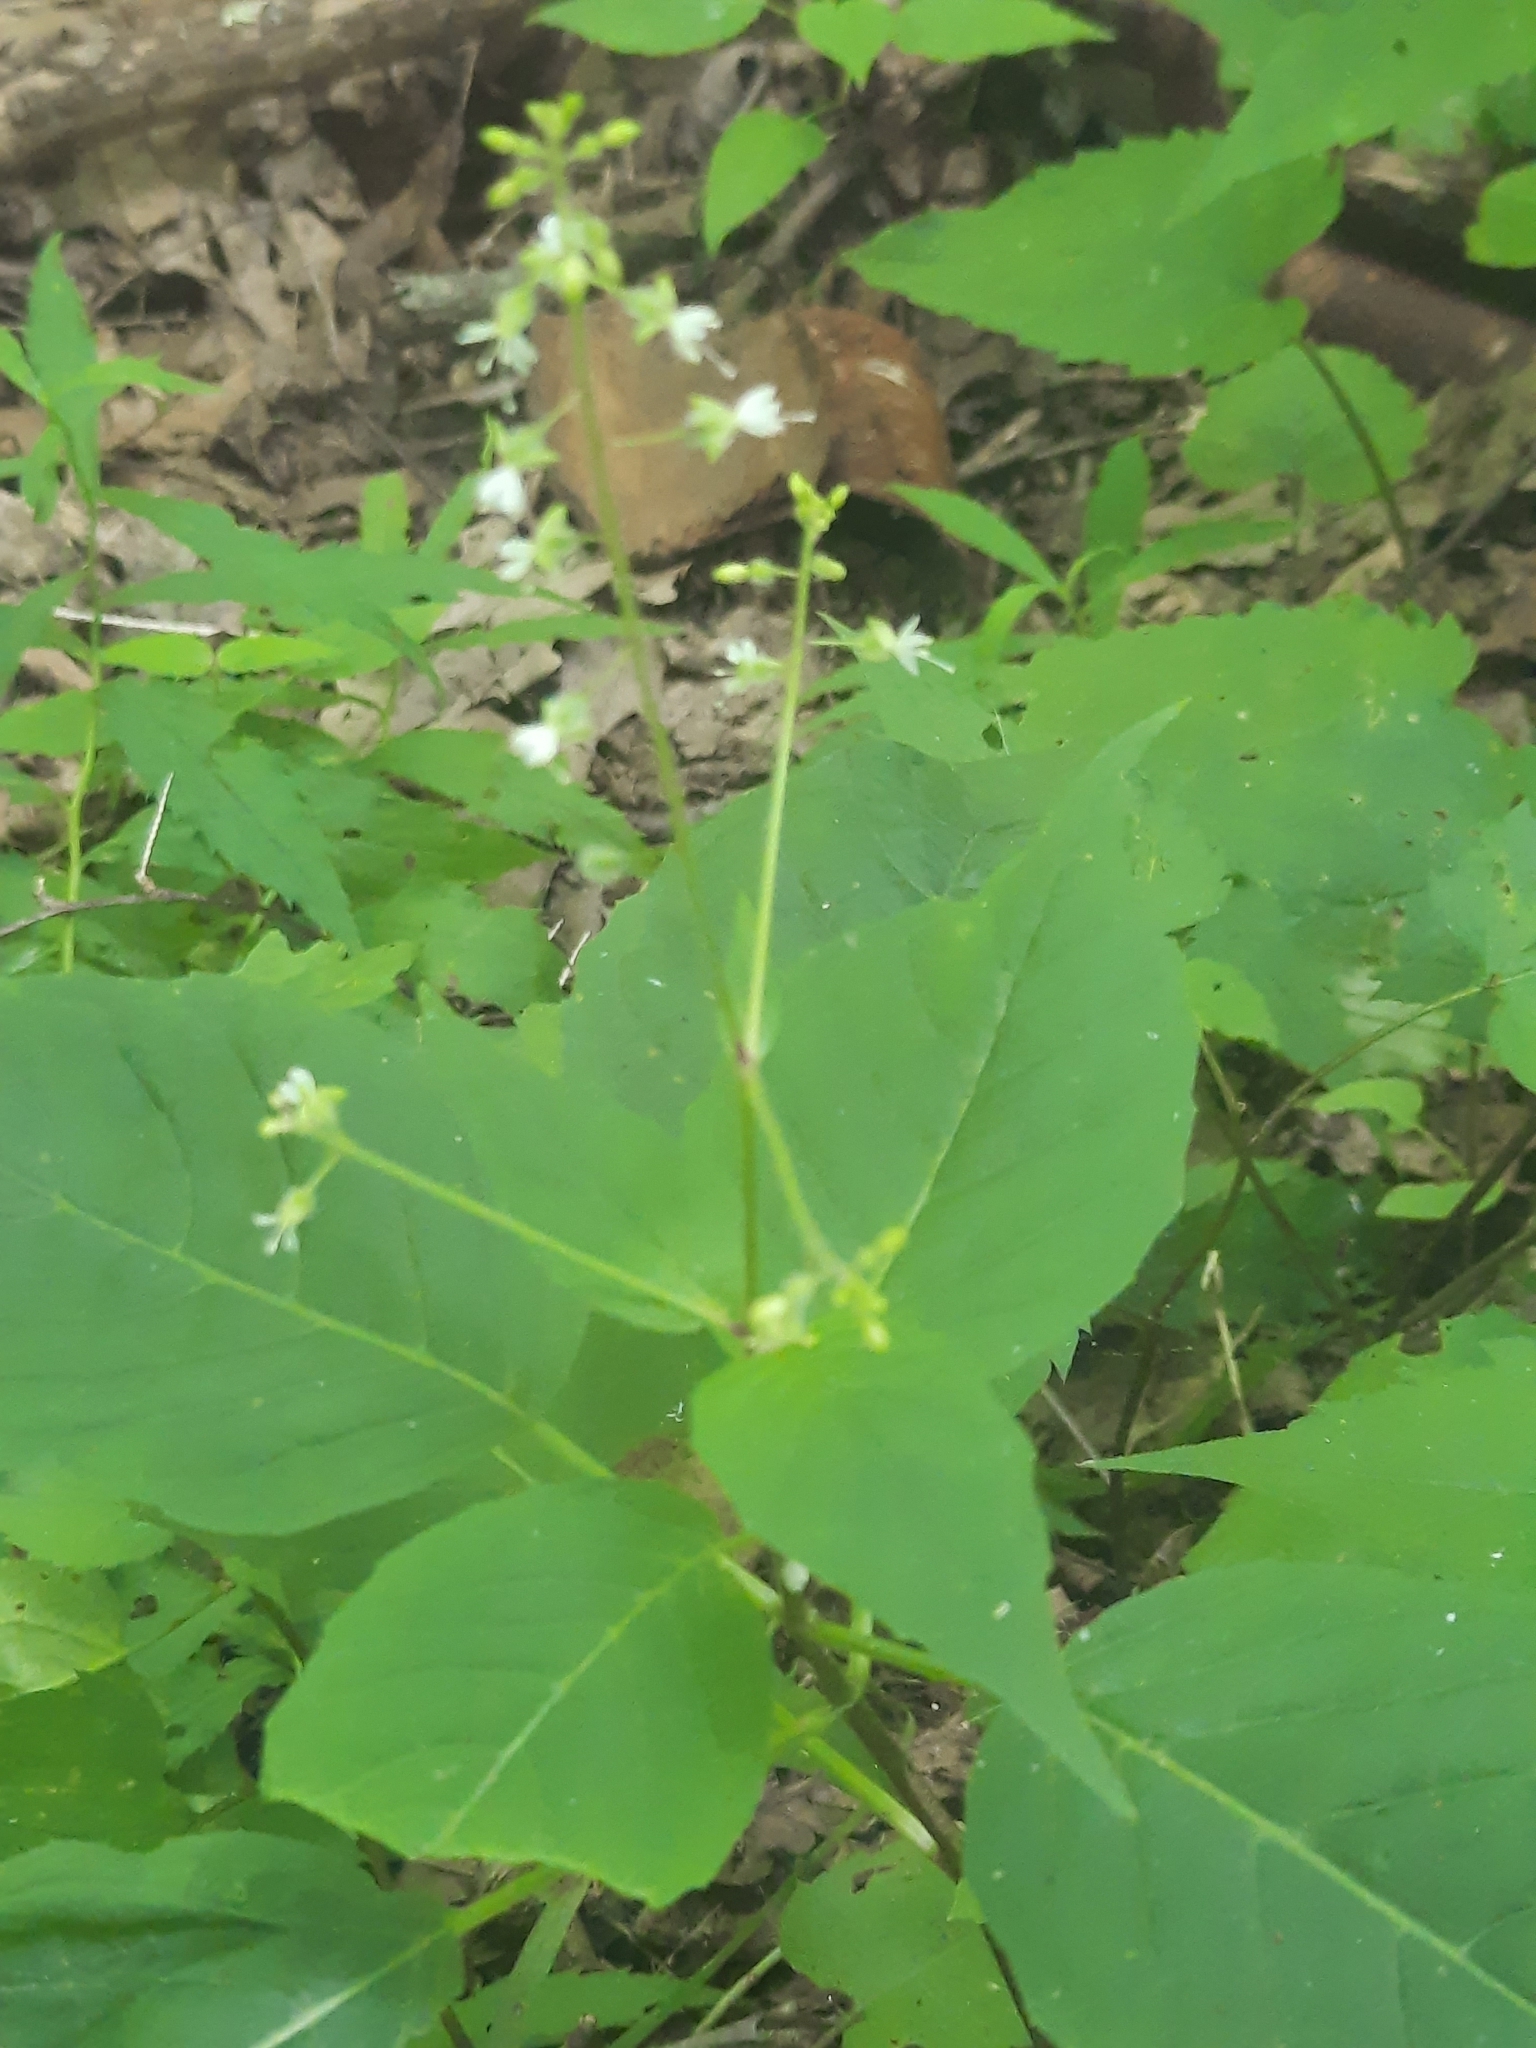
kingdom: Plantae
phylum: Tracheophyta
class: Magnoliopsida
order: Myrtales
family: Onagraceae
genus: Circaea
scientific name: Circaea canadensis
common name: Broad-leaved enchanter's nightshade
